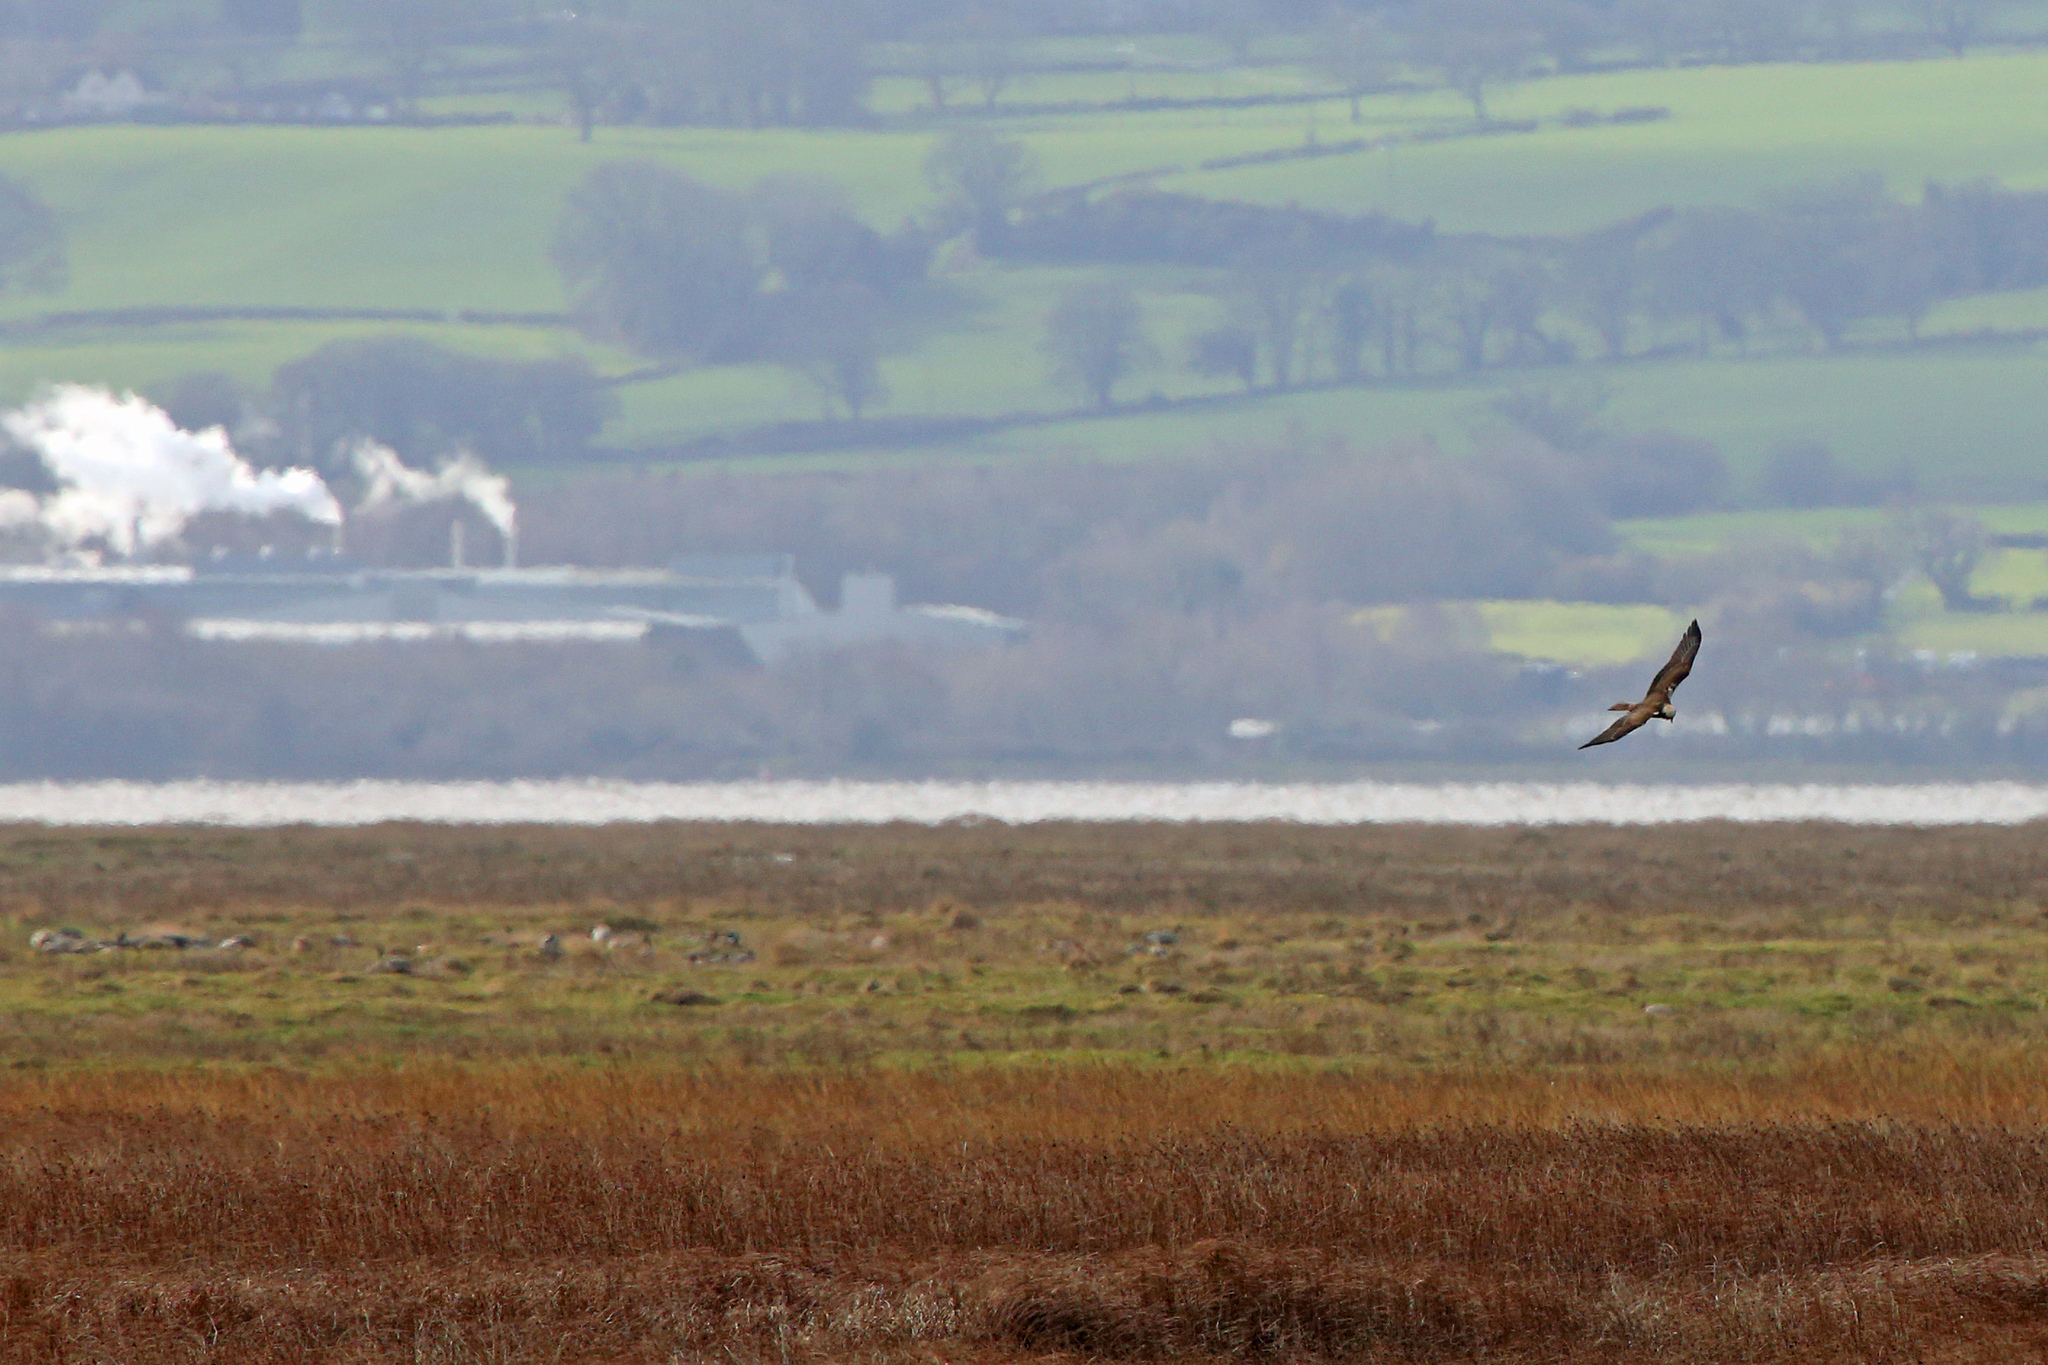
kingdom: Animalia
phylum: Chordata
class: Aves
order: Accipitriformes
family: Accipitridae
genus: Circus
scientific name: Circus aeruginosus
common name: Western marsh harrier
